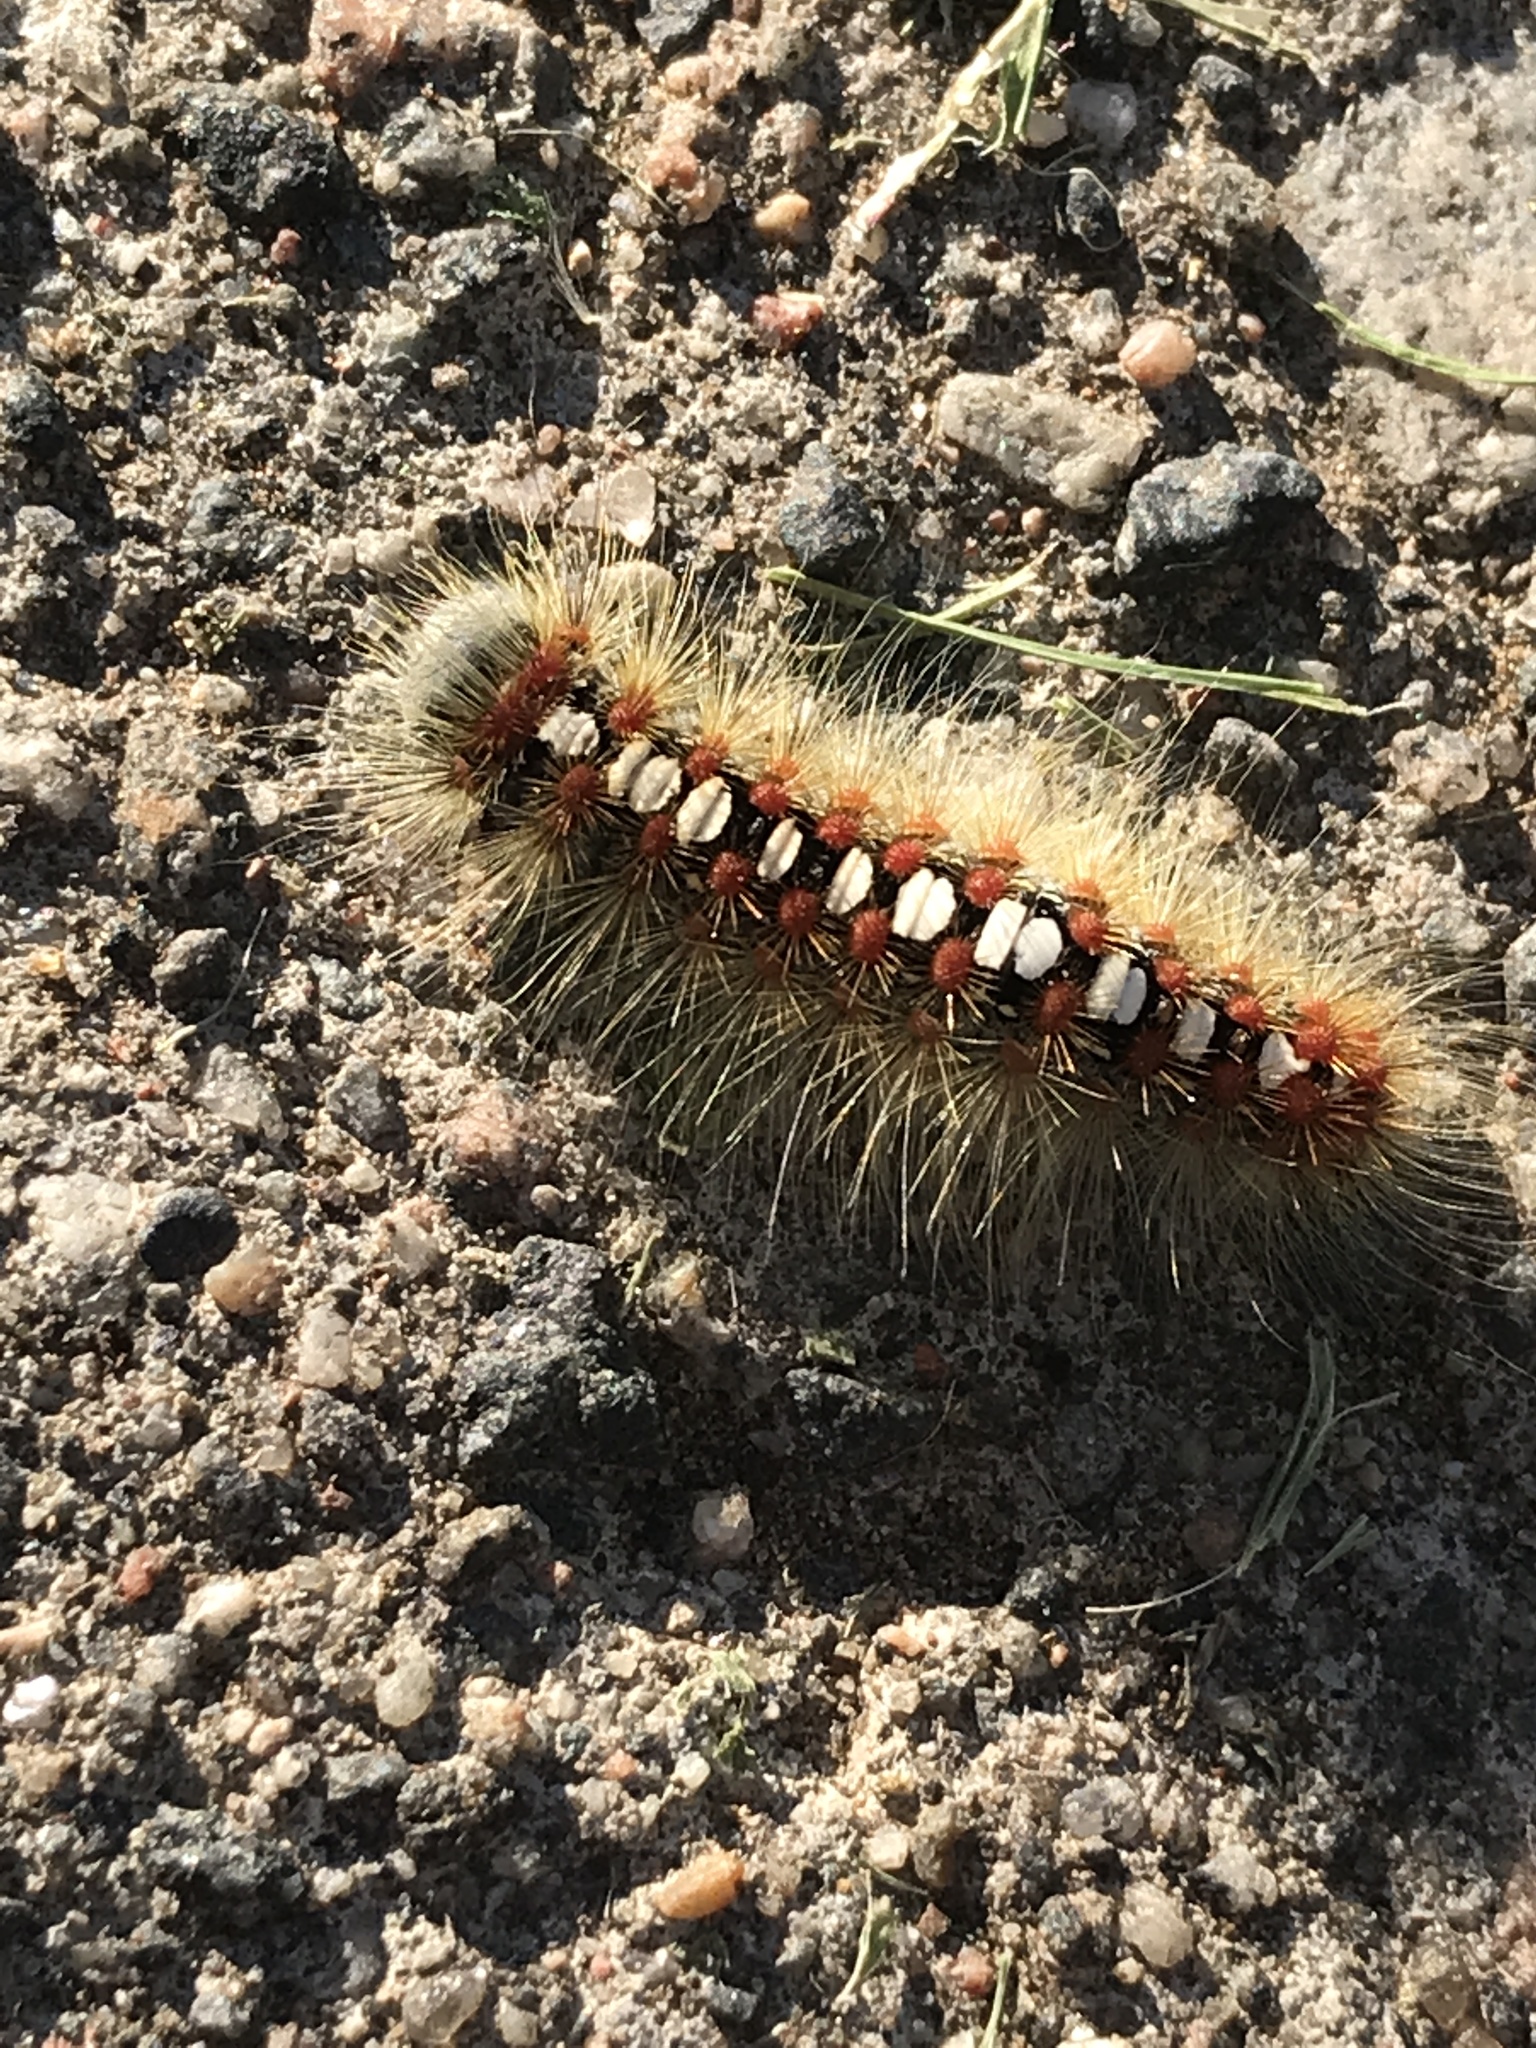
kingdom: Animalia
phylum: Arthropoda
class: Insecta
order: Lepidoptera
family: Erebidae
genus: Leucoma
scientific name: Leucoma salicis
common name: White satin moth
